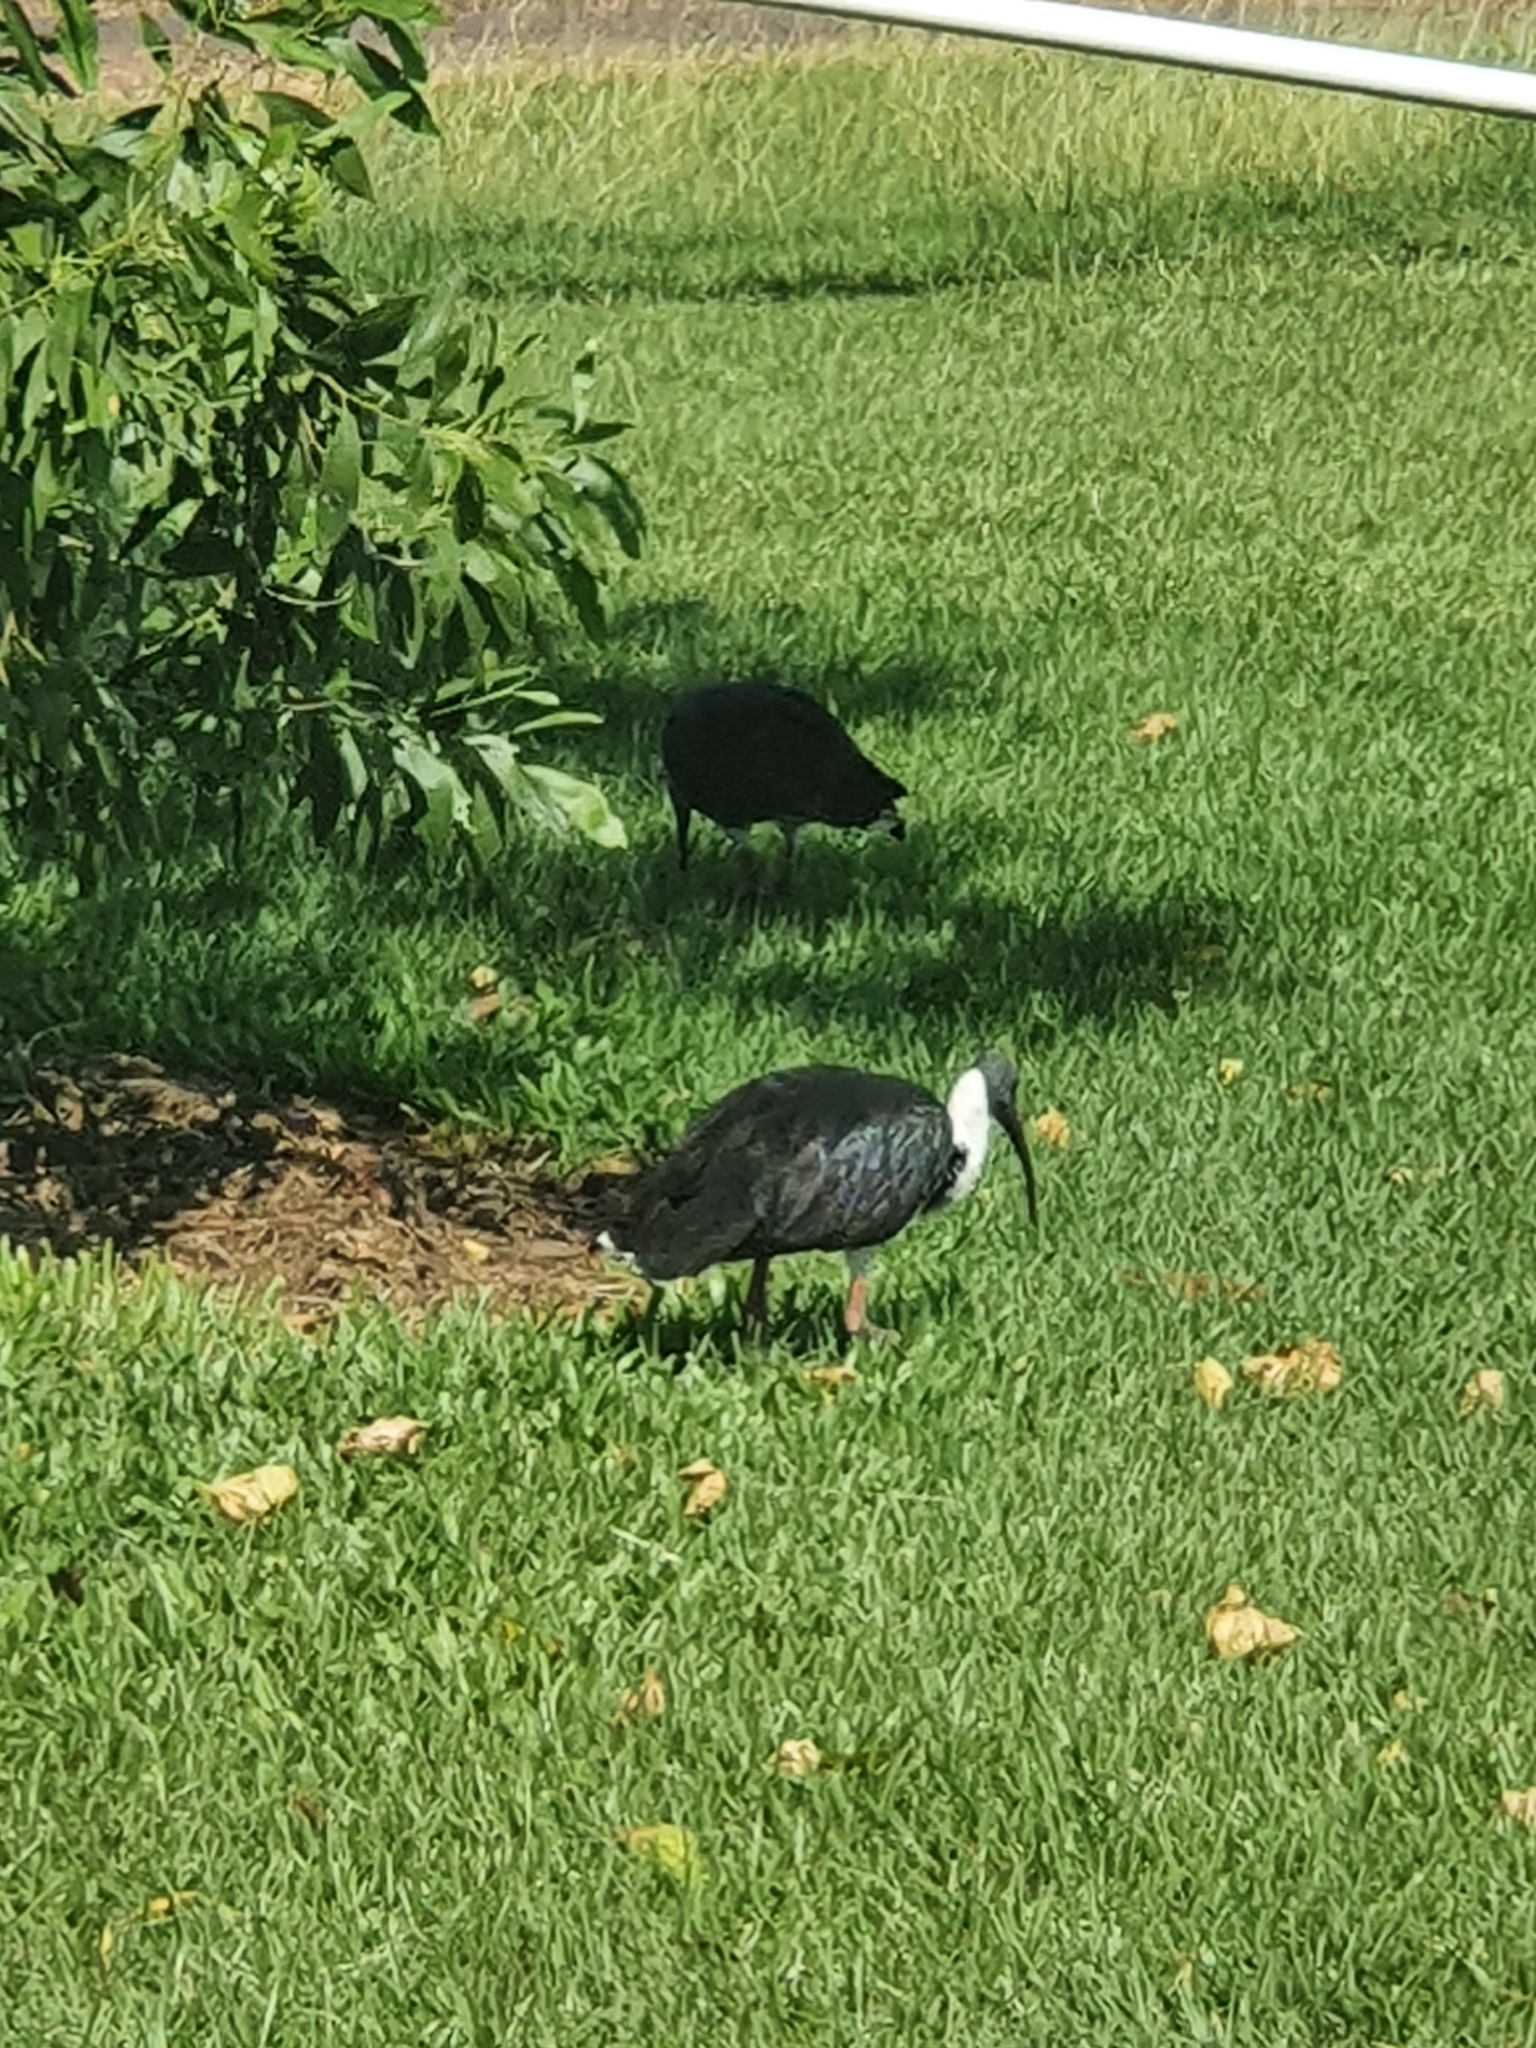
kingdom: Animalia
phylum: Chordata
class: Aves
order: Pelecaniformes
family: Threskiornithidae
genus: Threskiornis
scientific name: Threskiornis spinicollis
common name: Straw-necked ibis
